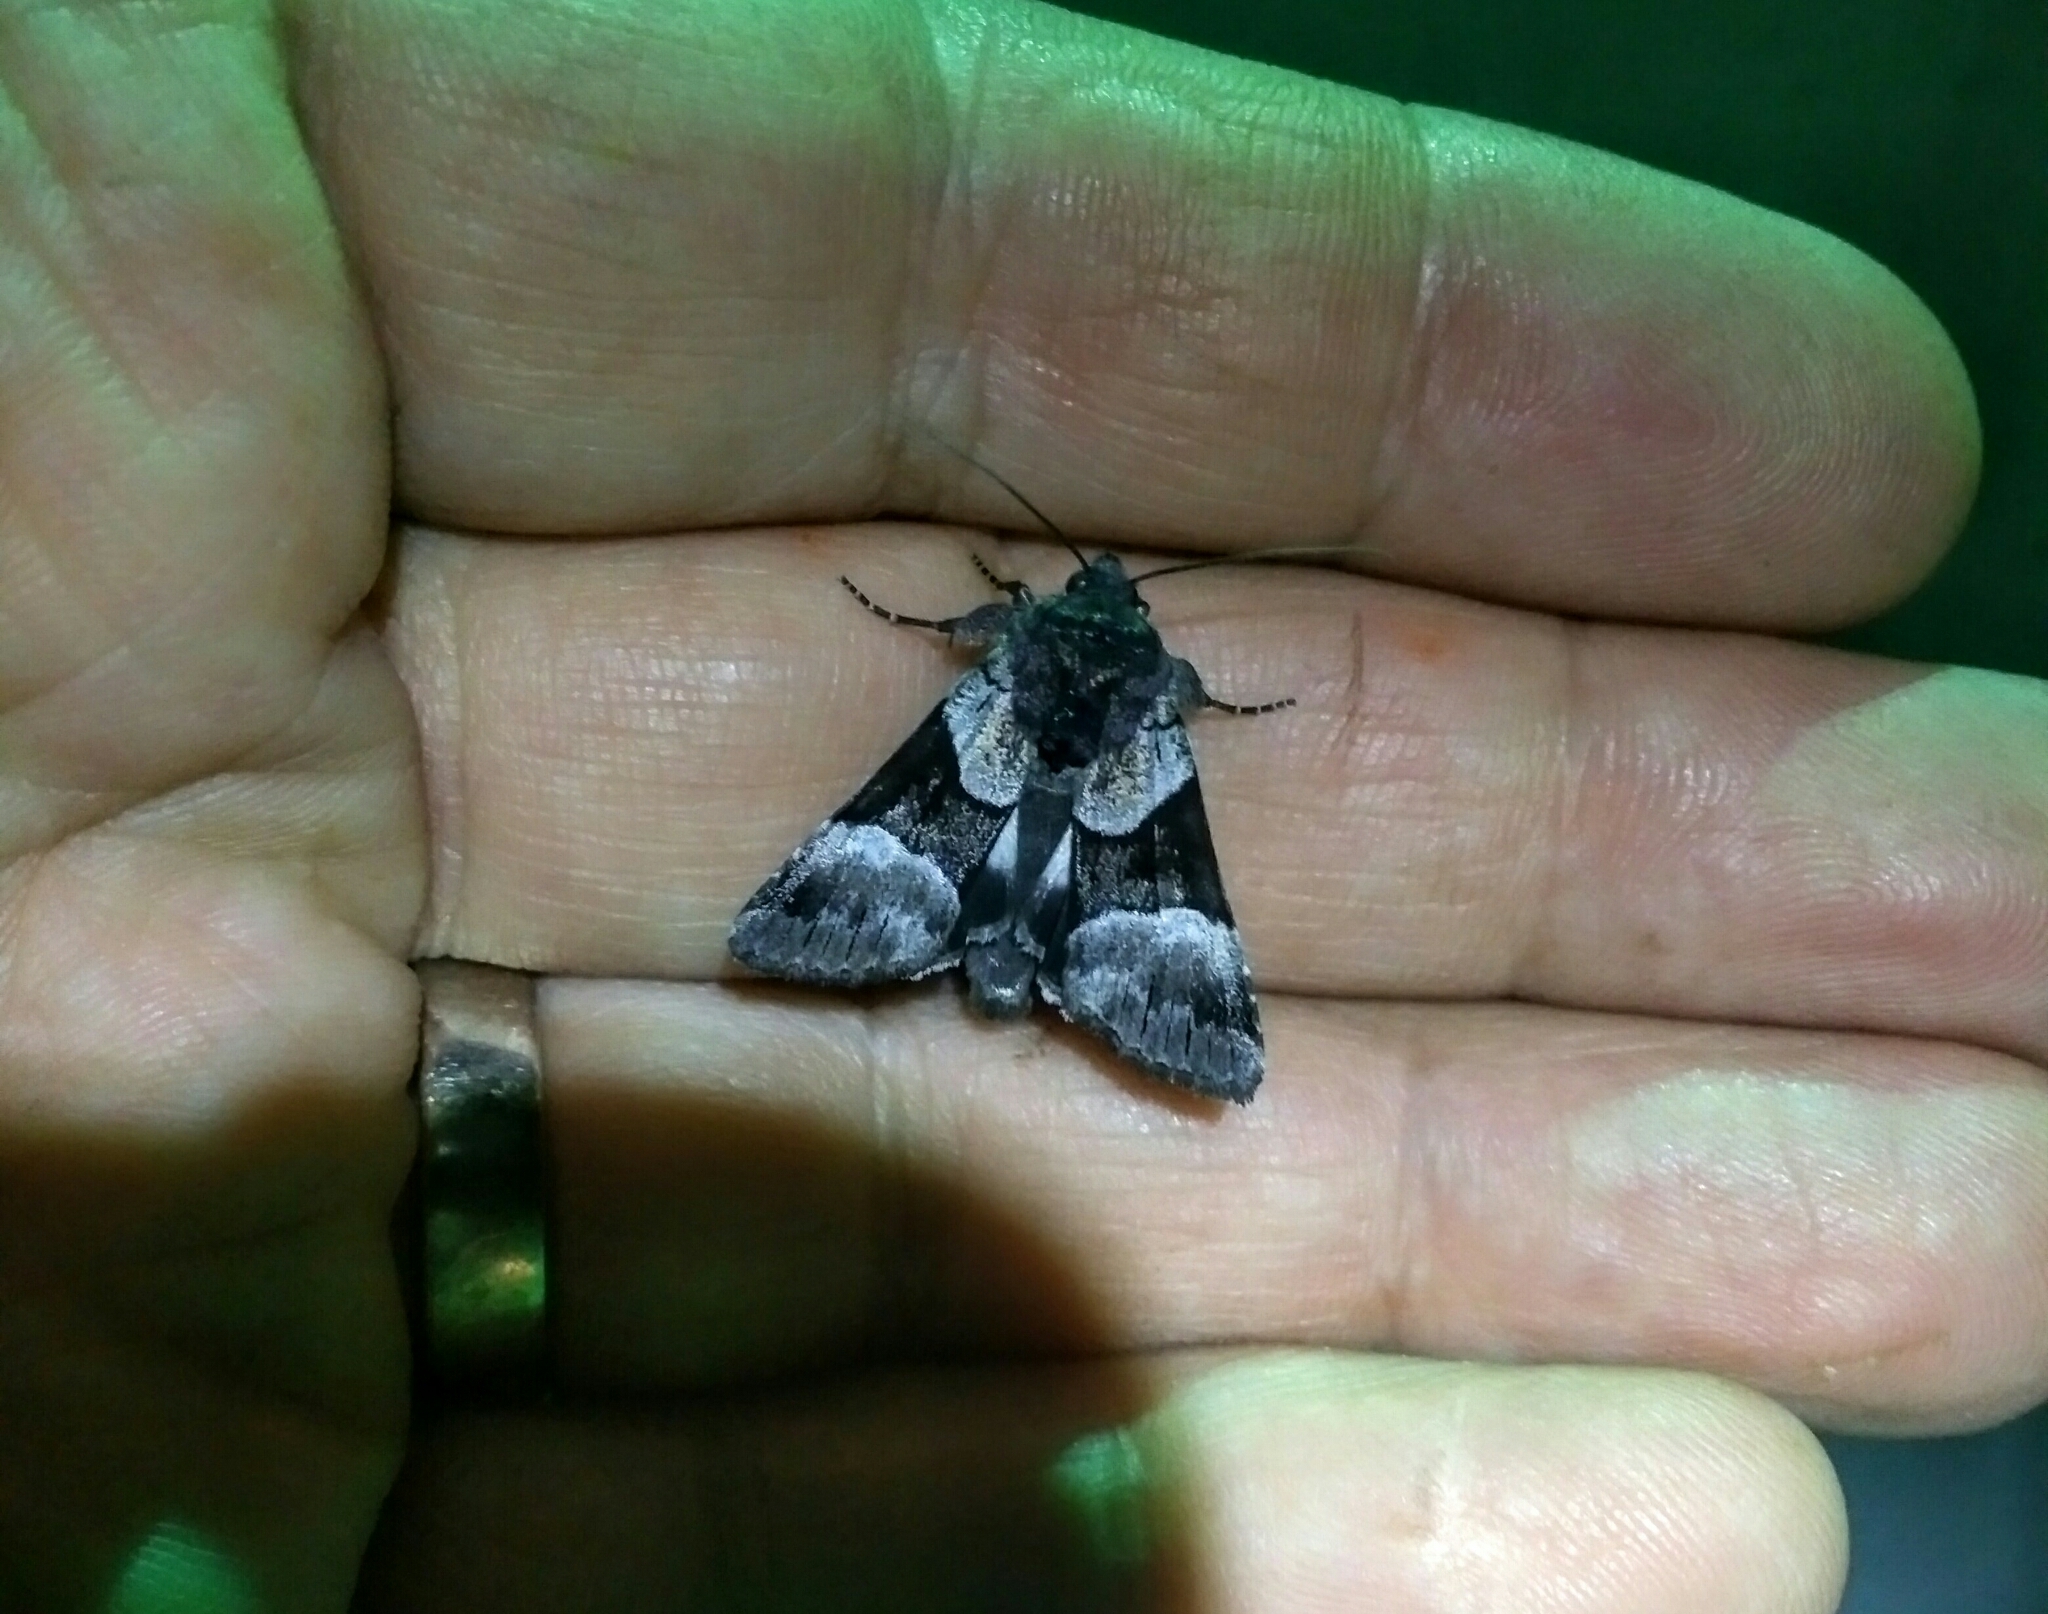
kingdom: Animalia
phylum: Arthropoda
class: Insecta
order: Lepidoptera
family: Noctuidae
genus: Sympistis
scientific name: Sympistis piffardi
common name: Three-striped oncocnemis
